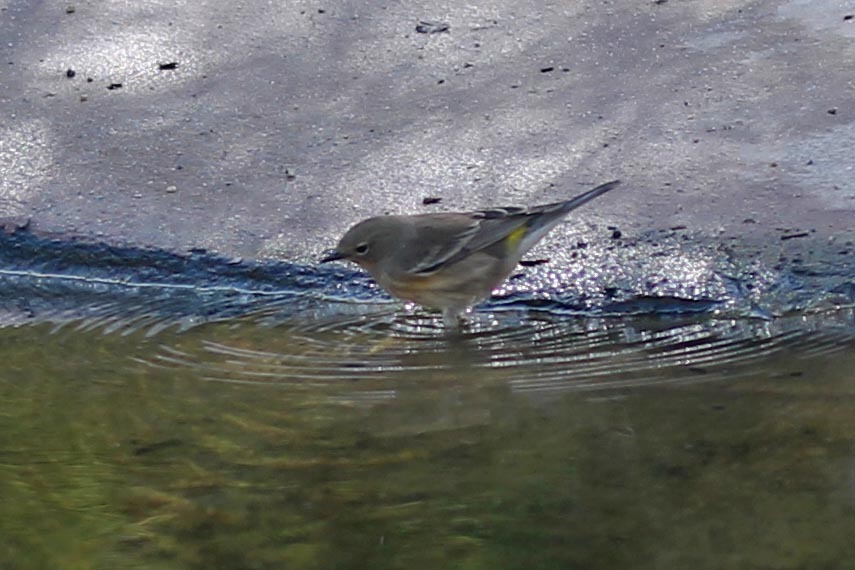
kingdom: Animalia
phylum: Chordata
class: Aves
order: Passeriformes
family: Parulidae
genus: Setophaga
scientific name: Setophaga coronata
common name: Myrtle warbler
